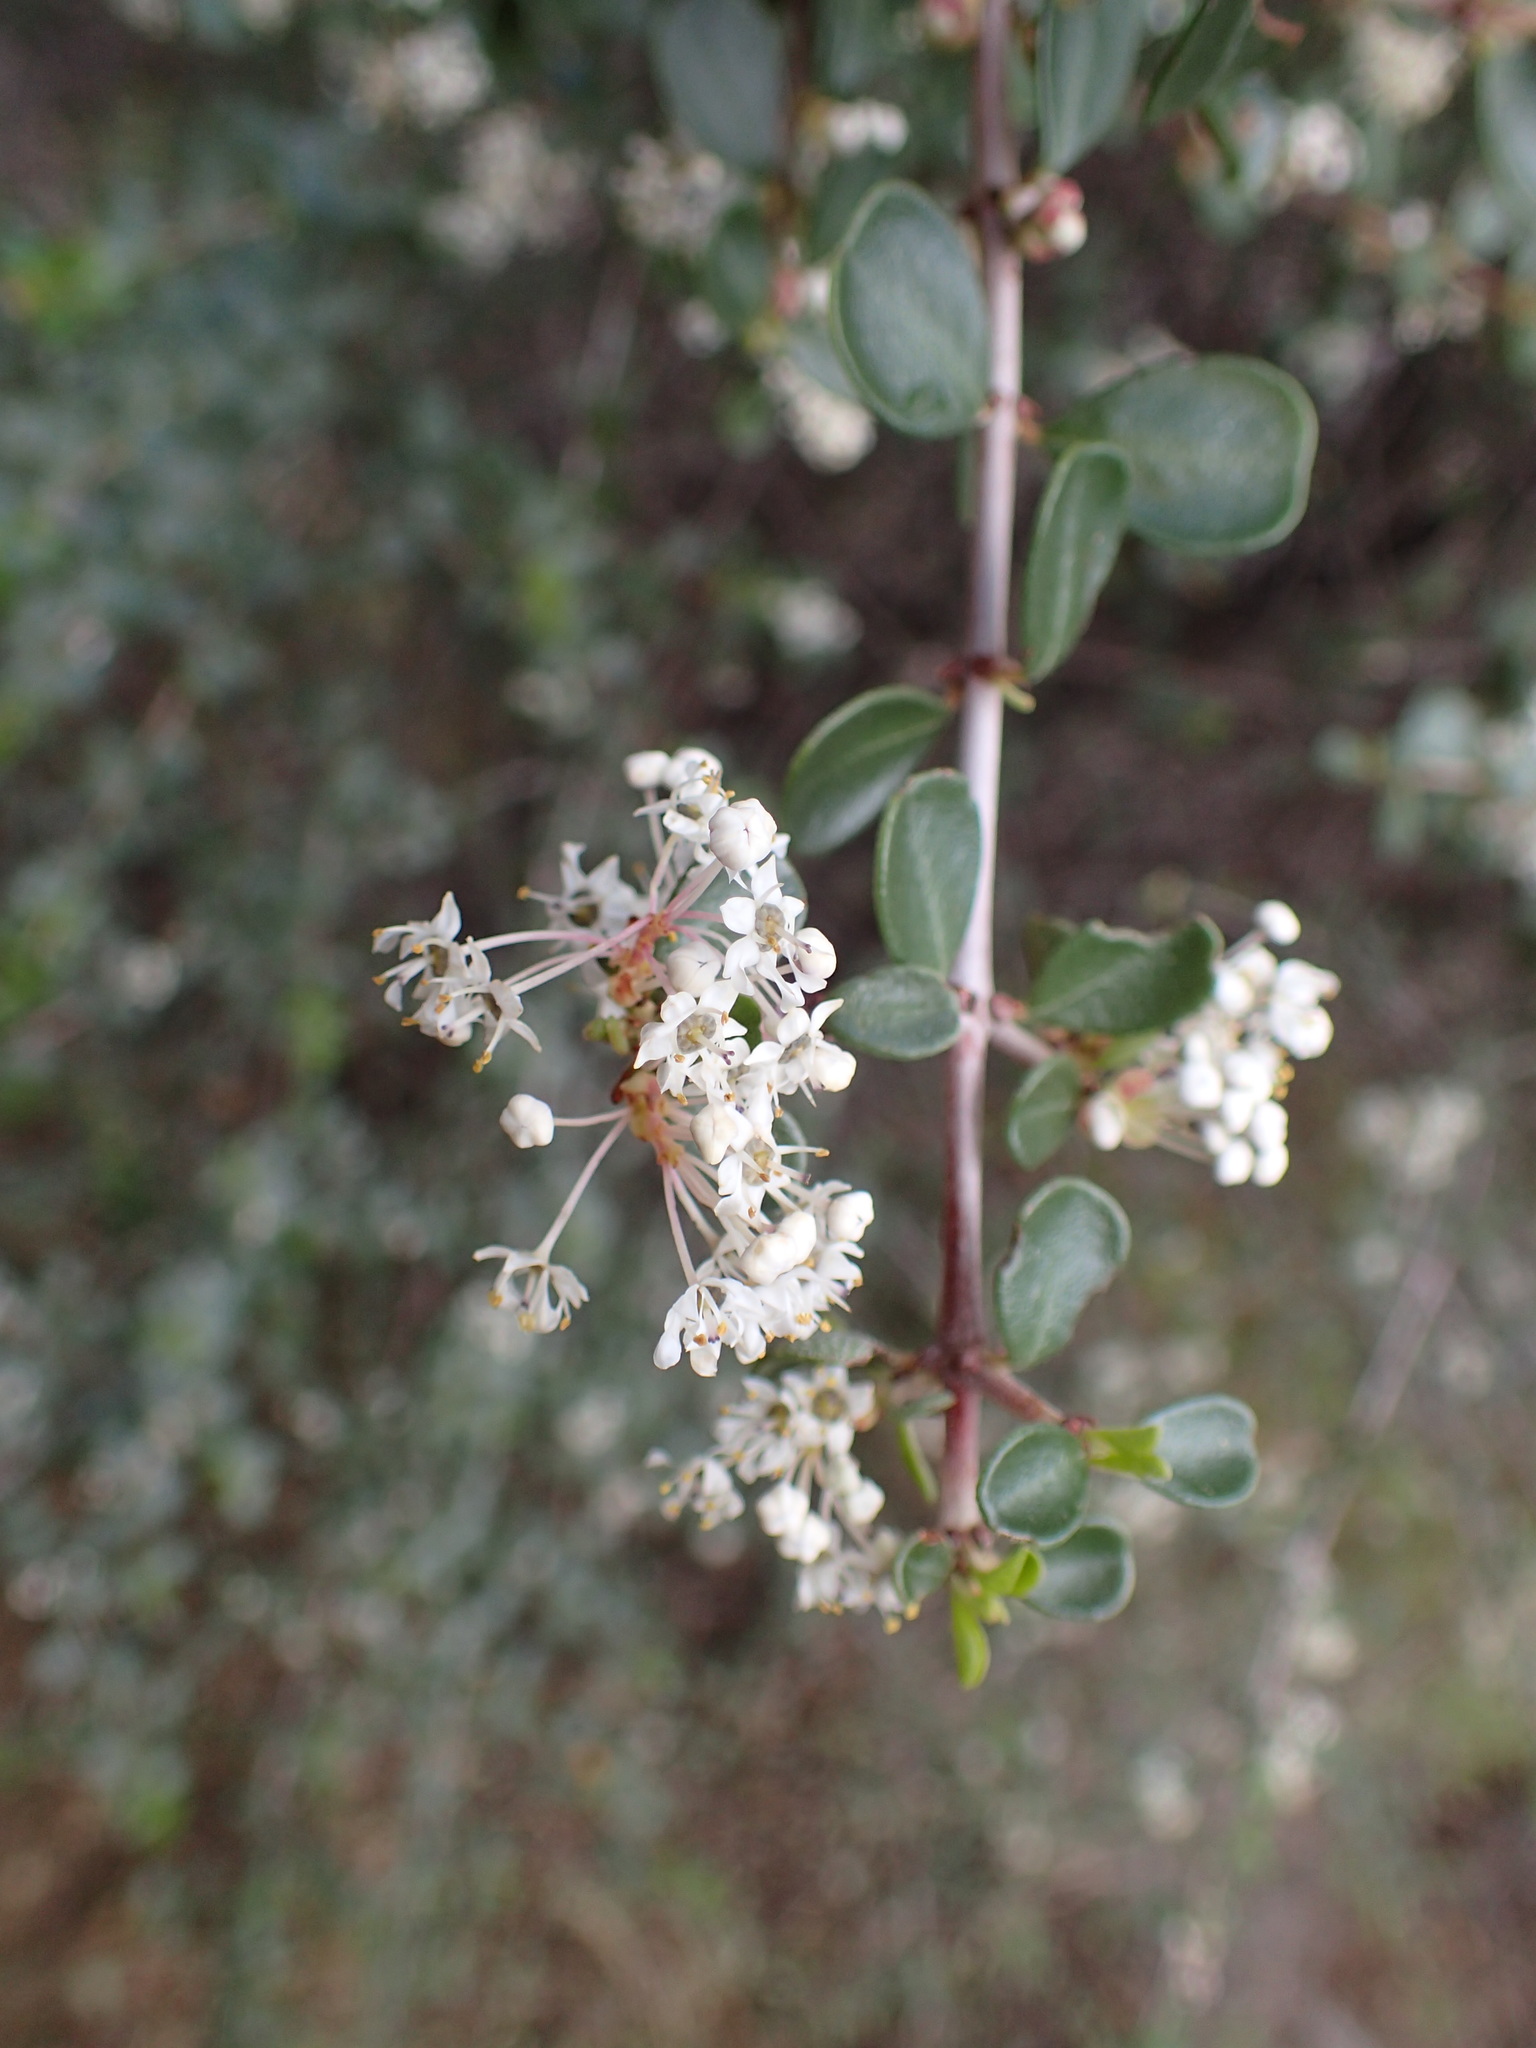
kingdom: Plantae
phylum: Tracheophyta
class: Magnoliopsida
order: Rosales
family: Rhamnaceae
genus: Ceanothus
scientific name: Ceanothus cuneatus
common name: Cuneate ceanothus
